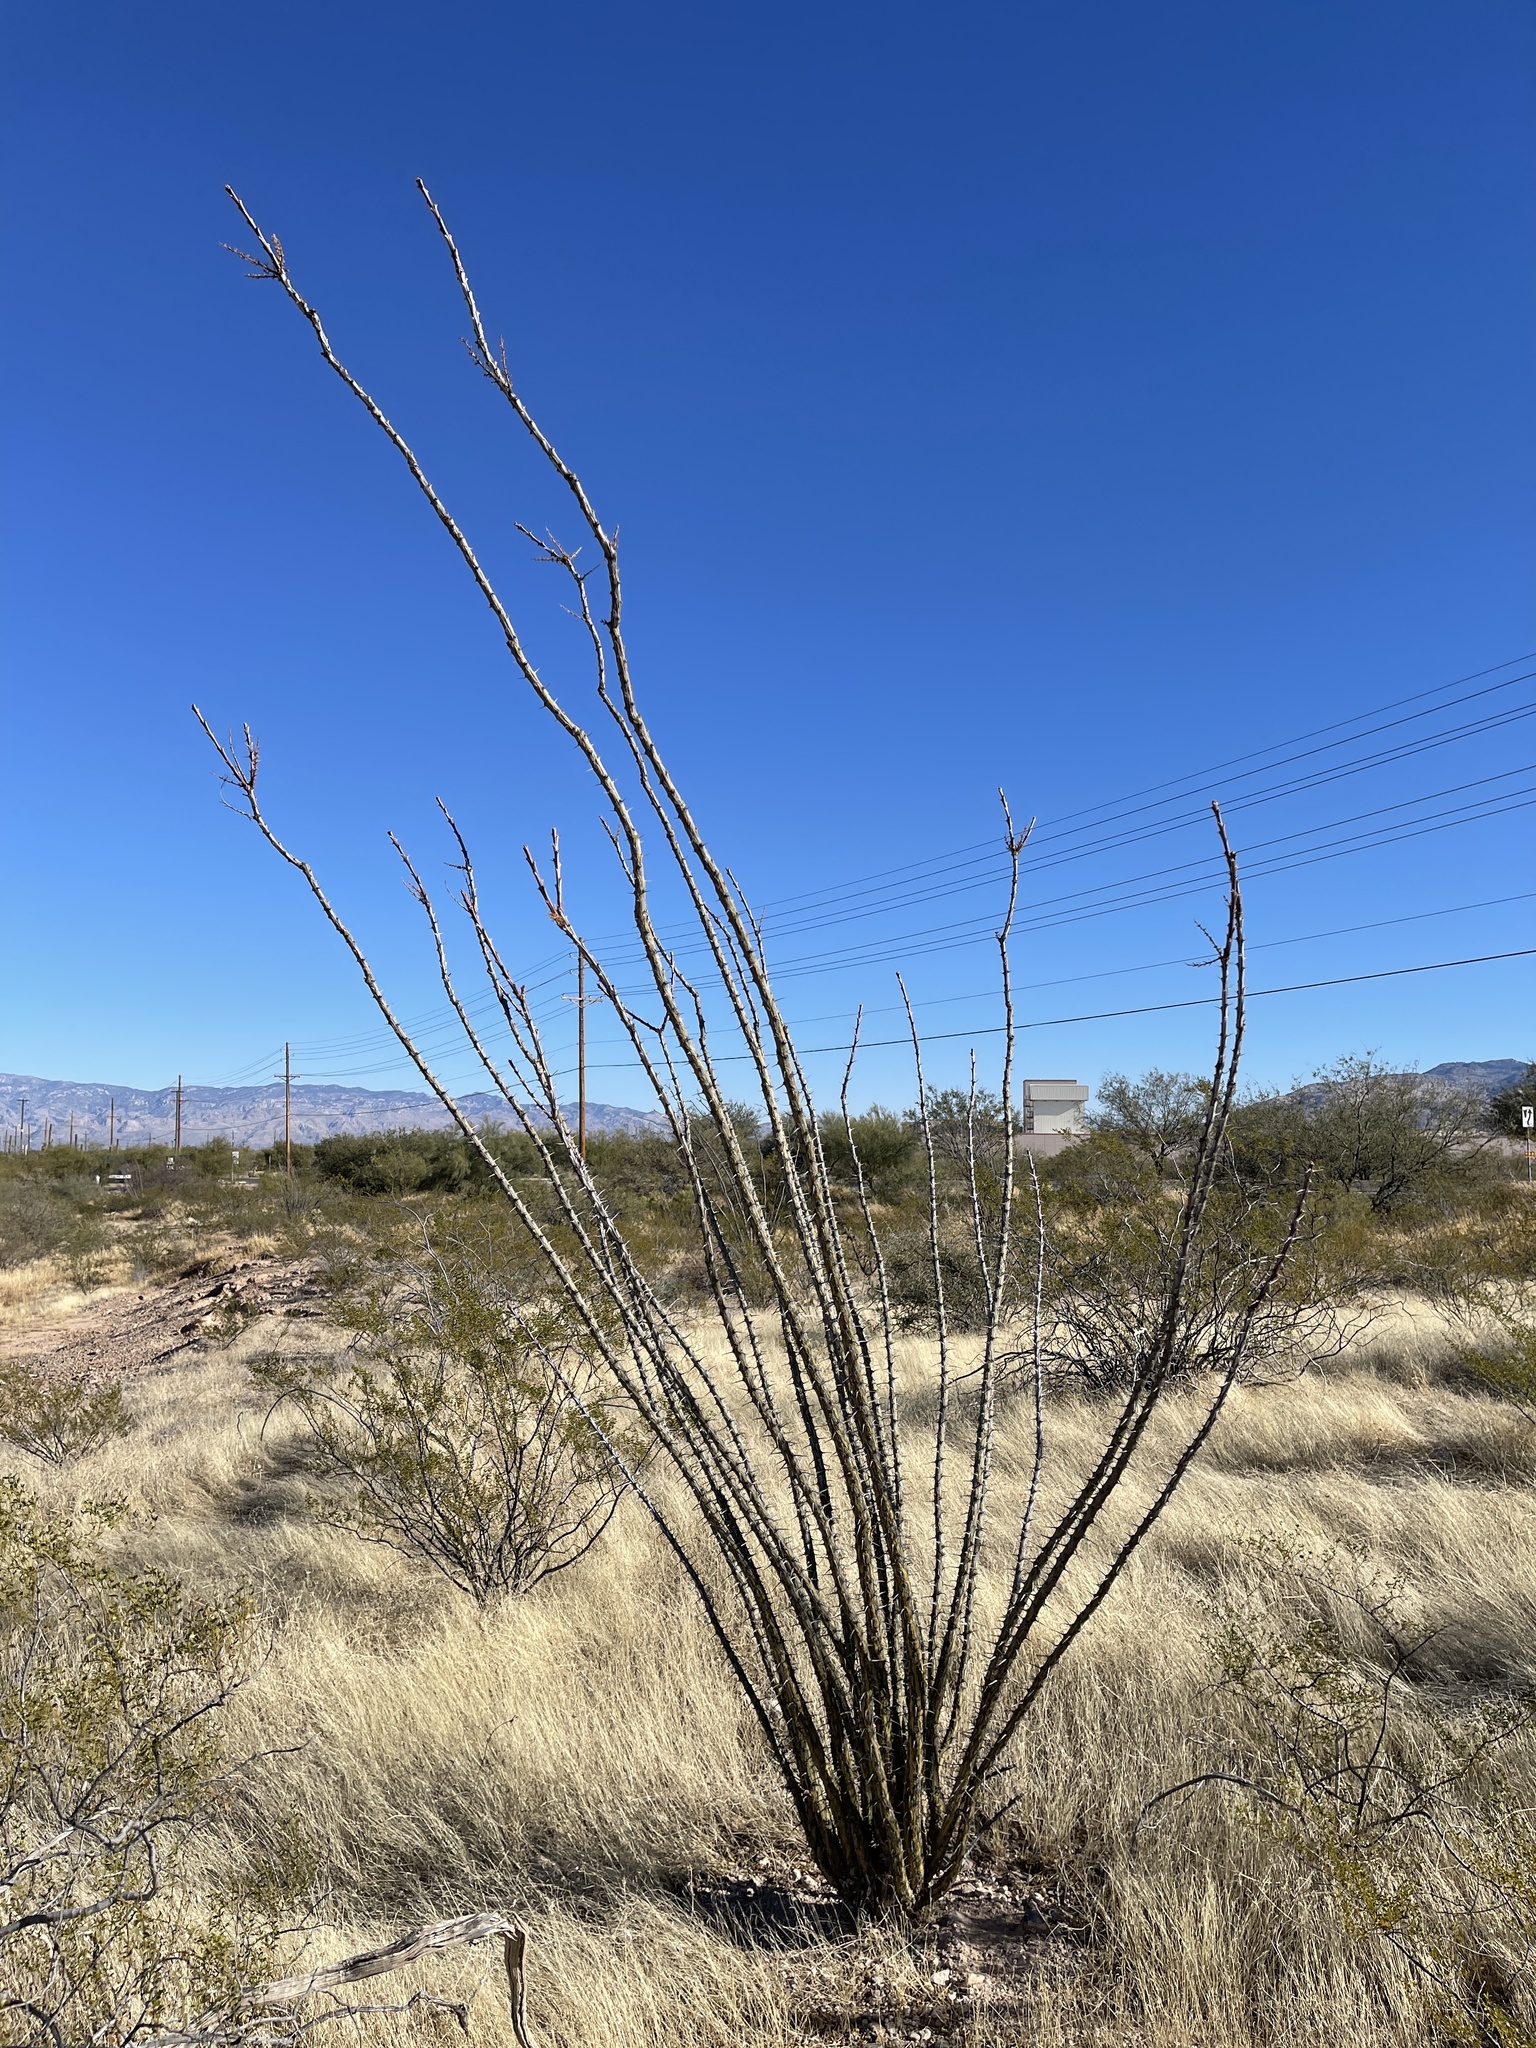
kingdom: Plantae
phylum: Tracheophyta
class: Magnoliopsida
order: Ericales
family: Fouquieriaceae
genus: Fouquieria
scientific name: Fouquieria splendens
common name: Vine-cactus
